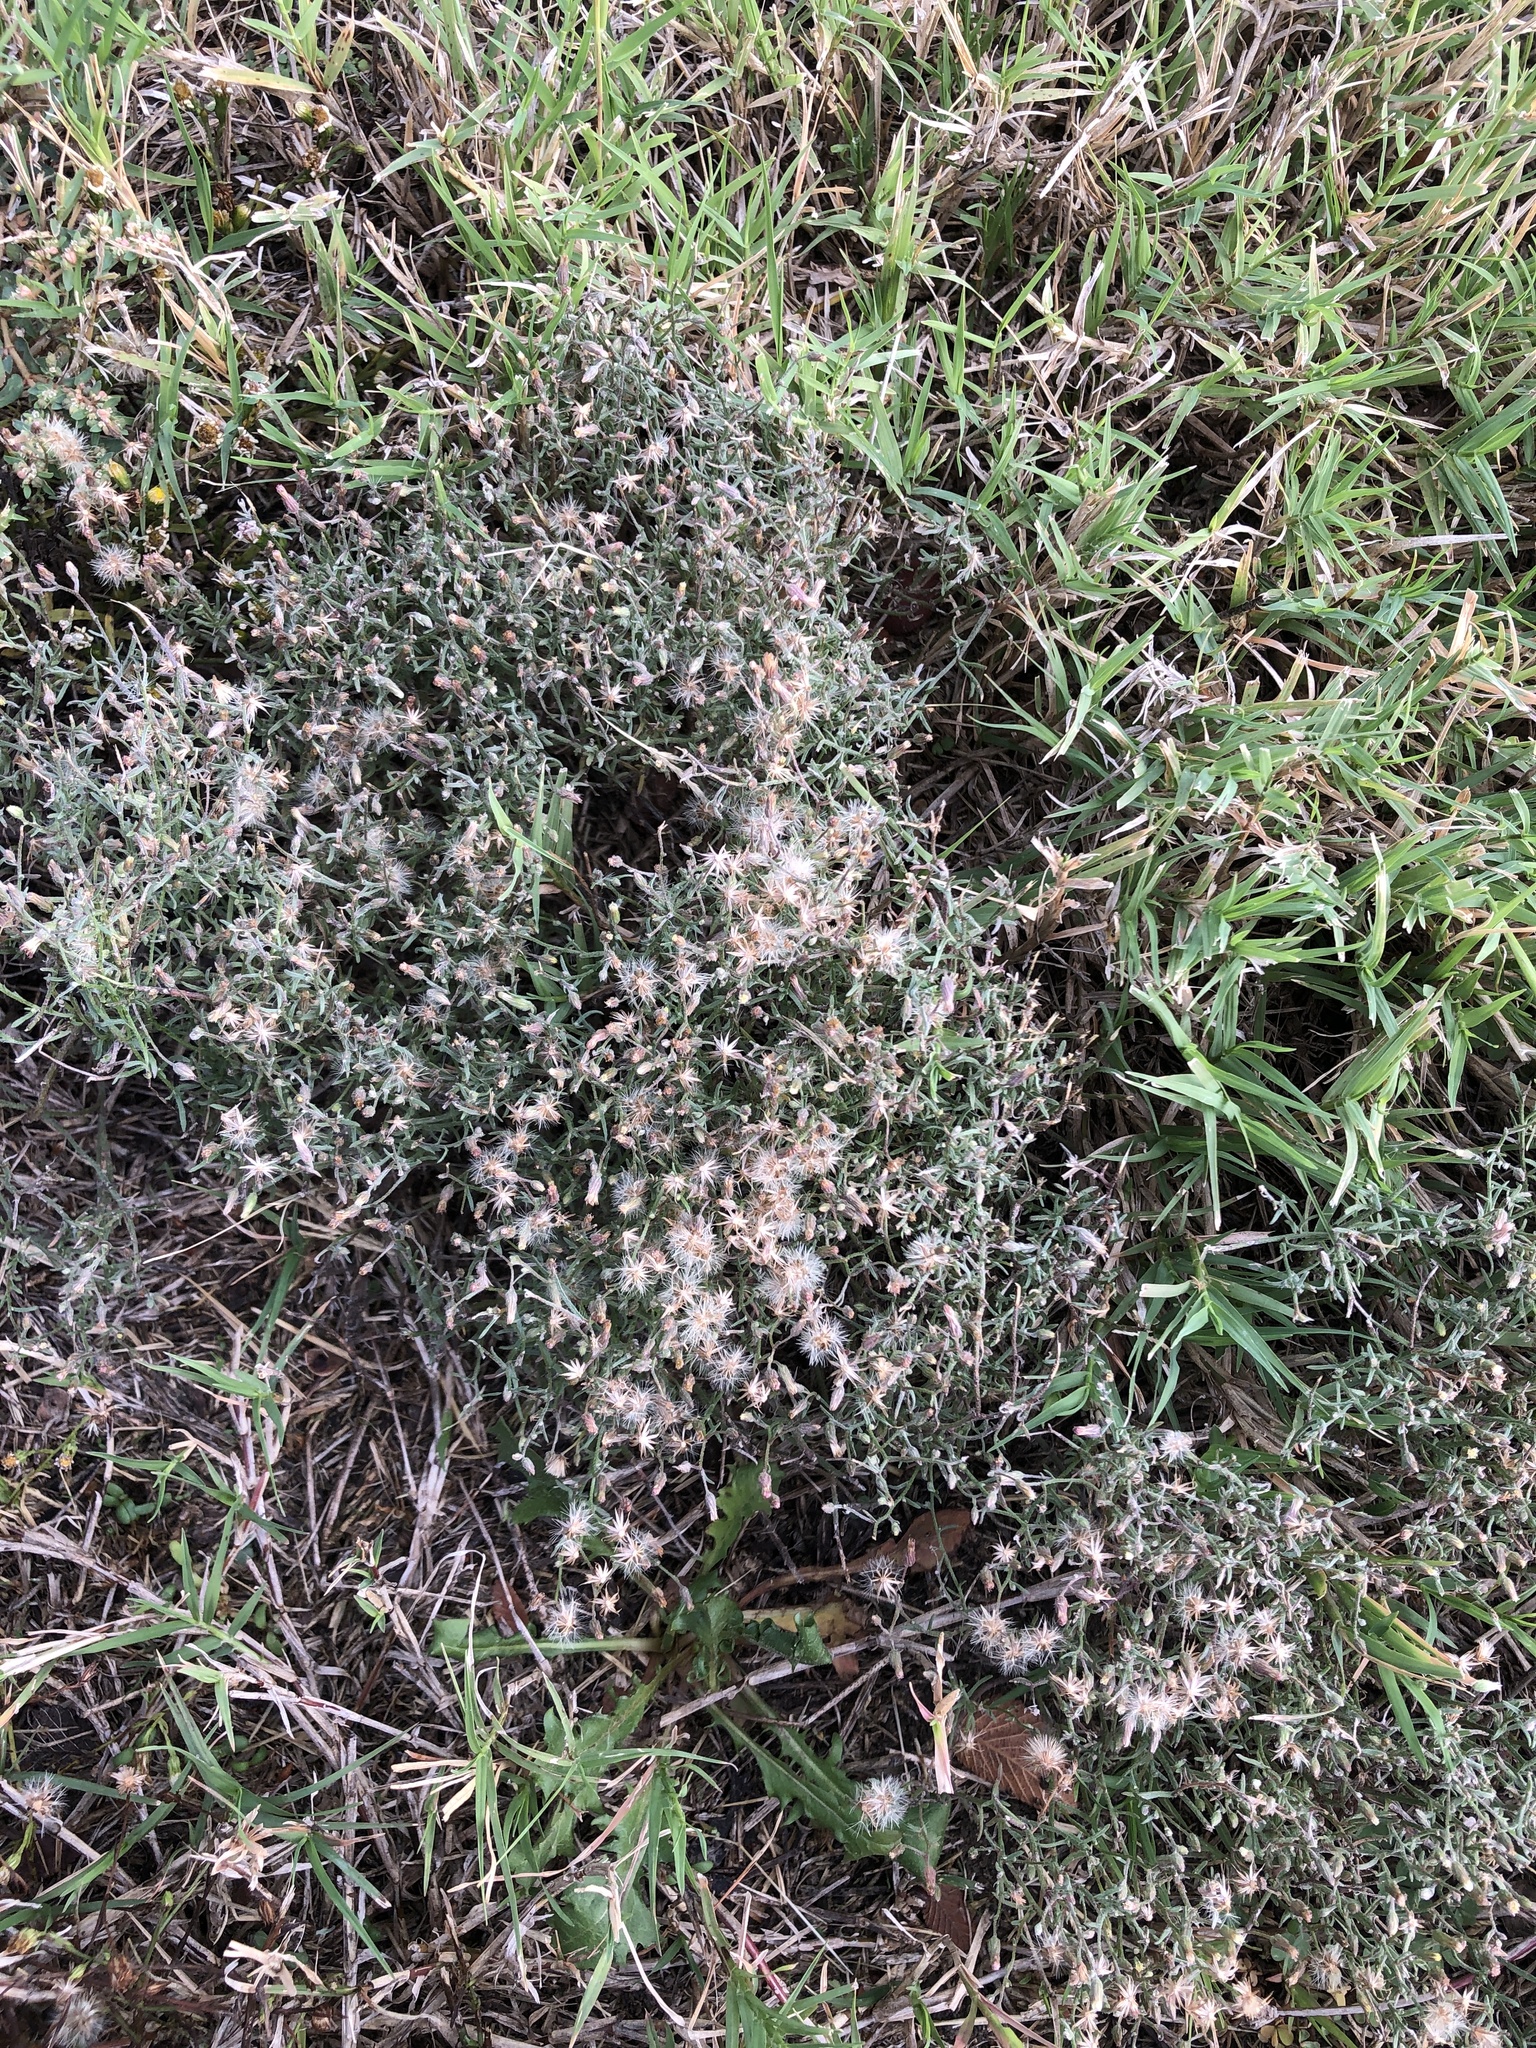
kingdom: Plantae
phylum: Tracheophyta
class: Magnoliopsida
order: Asterales
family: Asteraceae
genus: Erigeron
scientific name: Erigeron divaricatus
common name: Dwarf conyza
